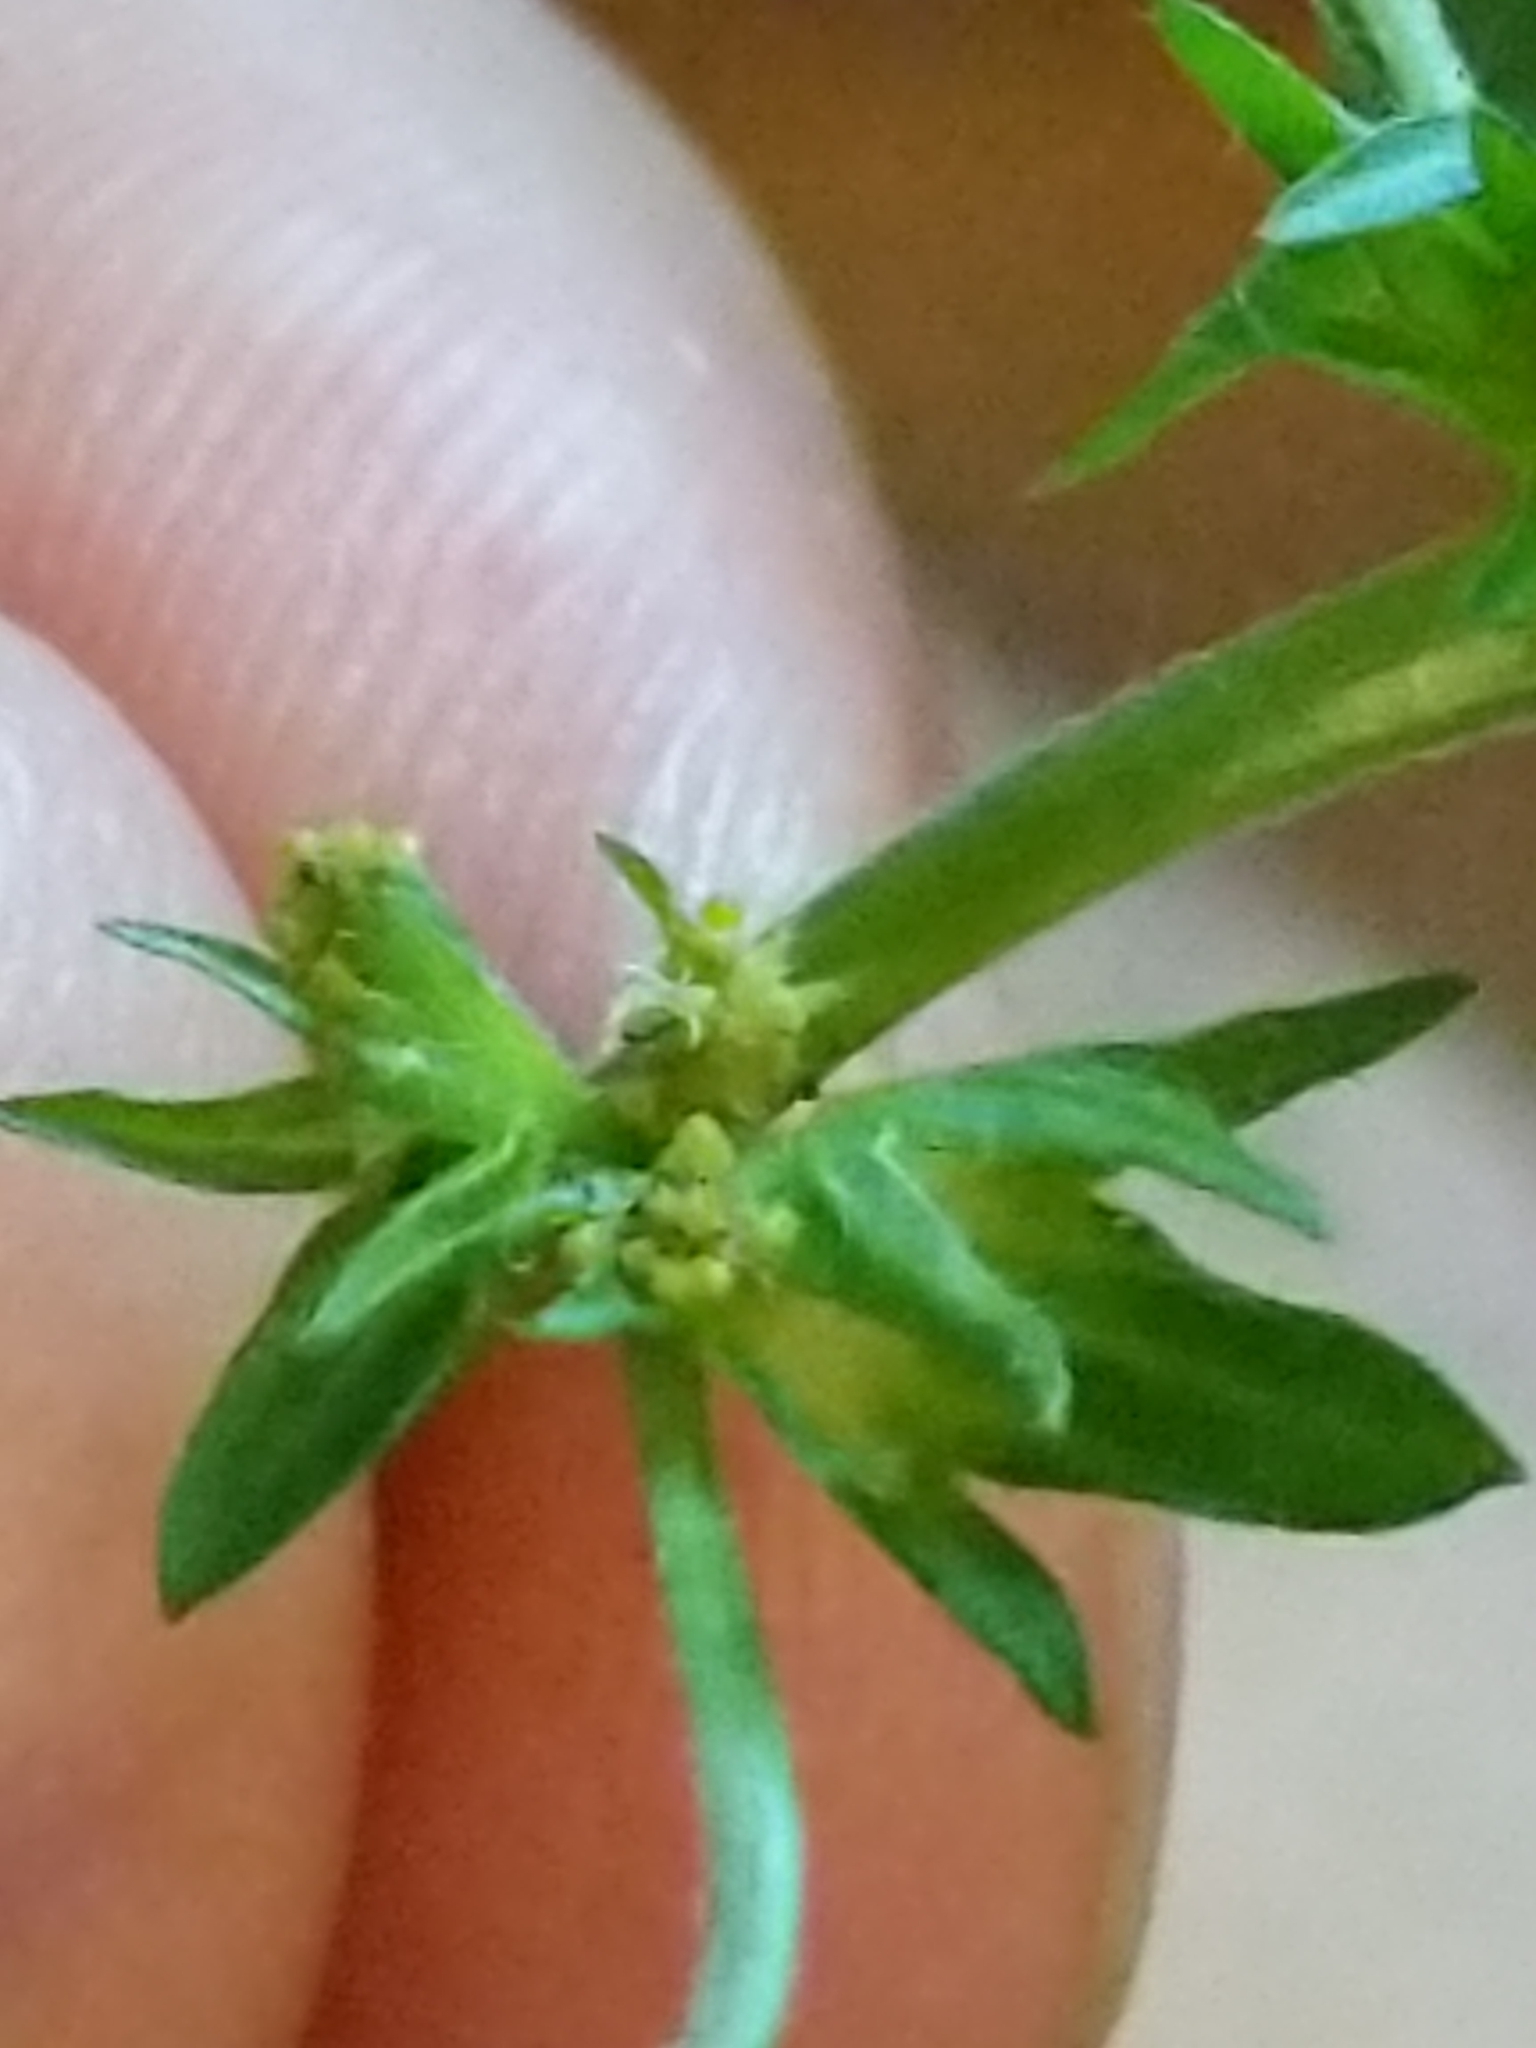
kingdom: Plantae
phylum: Tracheophyta
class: Magnoliopsida
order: Malpighiales
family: Euphorbiaceae
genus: Acalypha
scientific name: Acalypha rhomboidea
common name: Rhombic copperleaf
